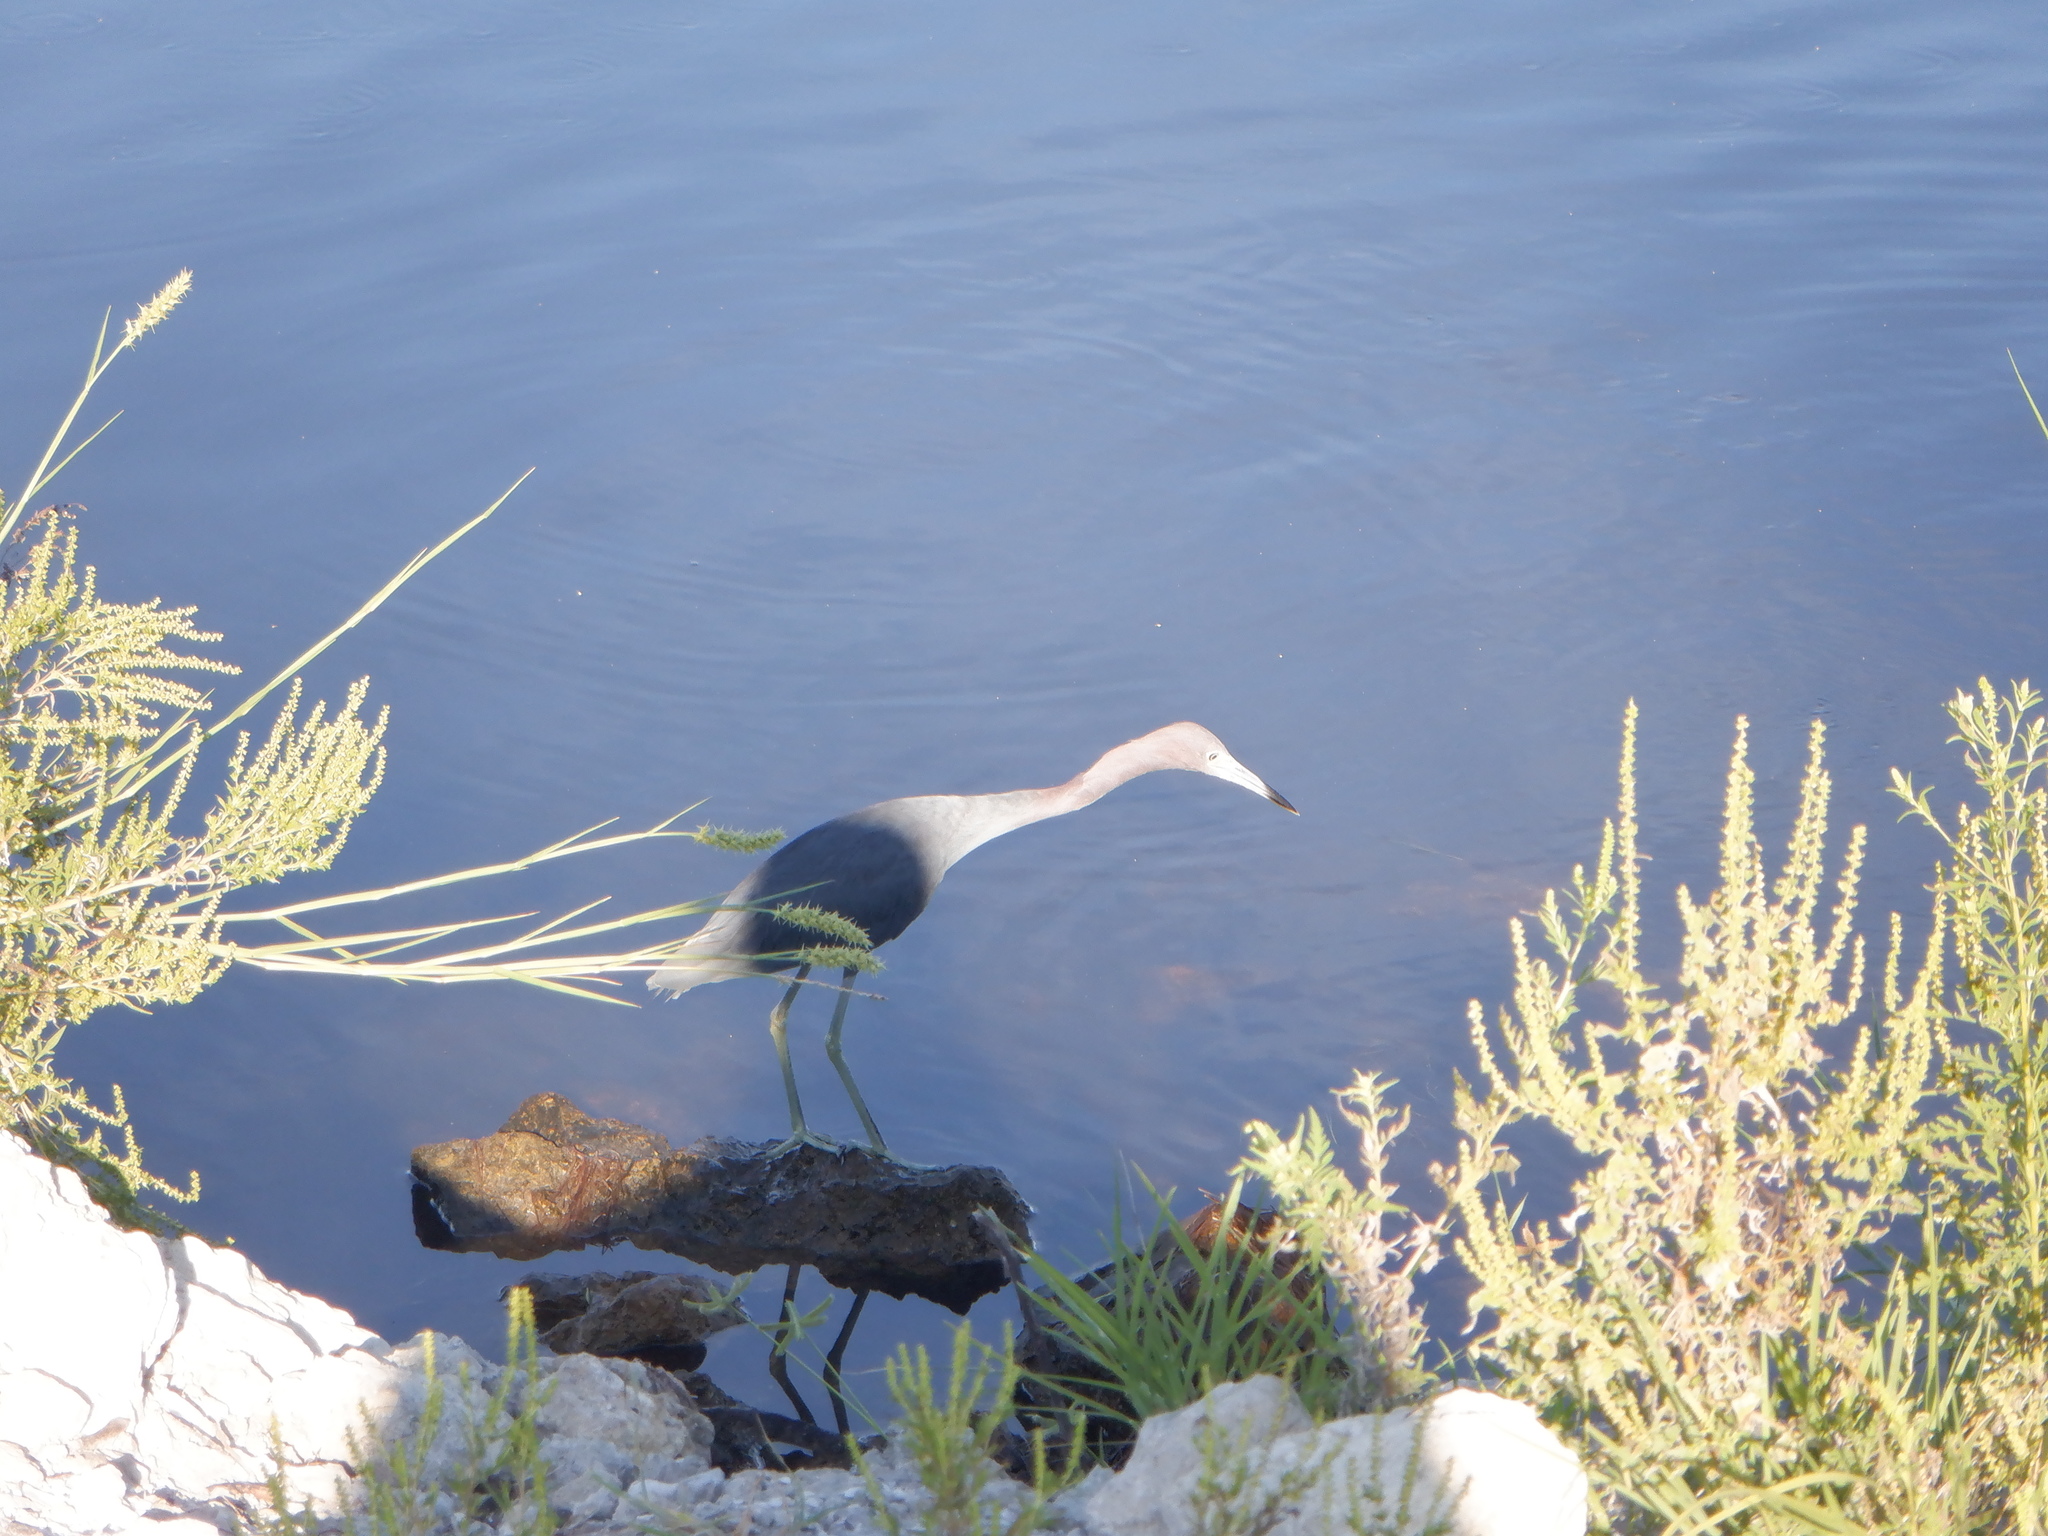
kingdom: Animalia
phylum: Chordata
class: Aves
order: Pelecaniformes
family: Ardeidae
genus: Egretta
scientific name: Egretta caerulea
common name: Little blue heron
